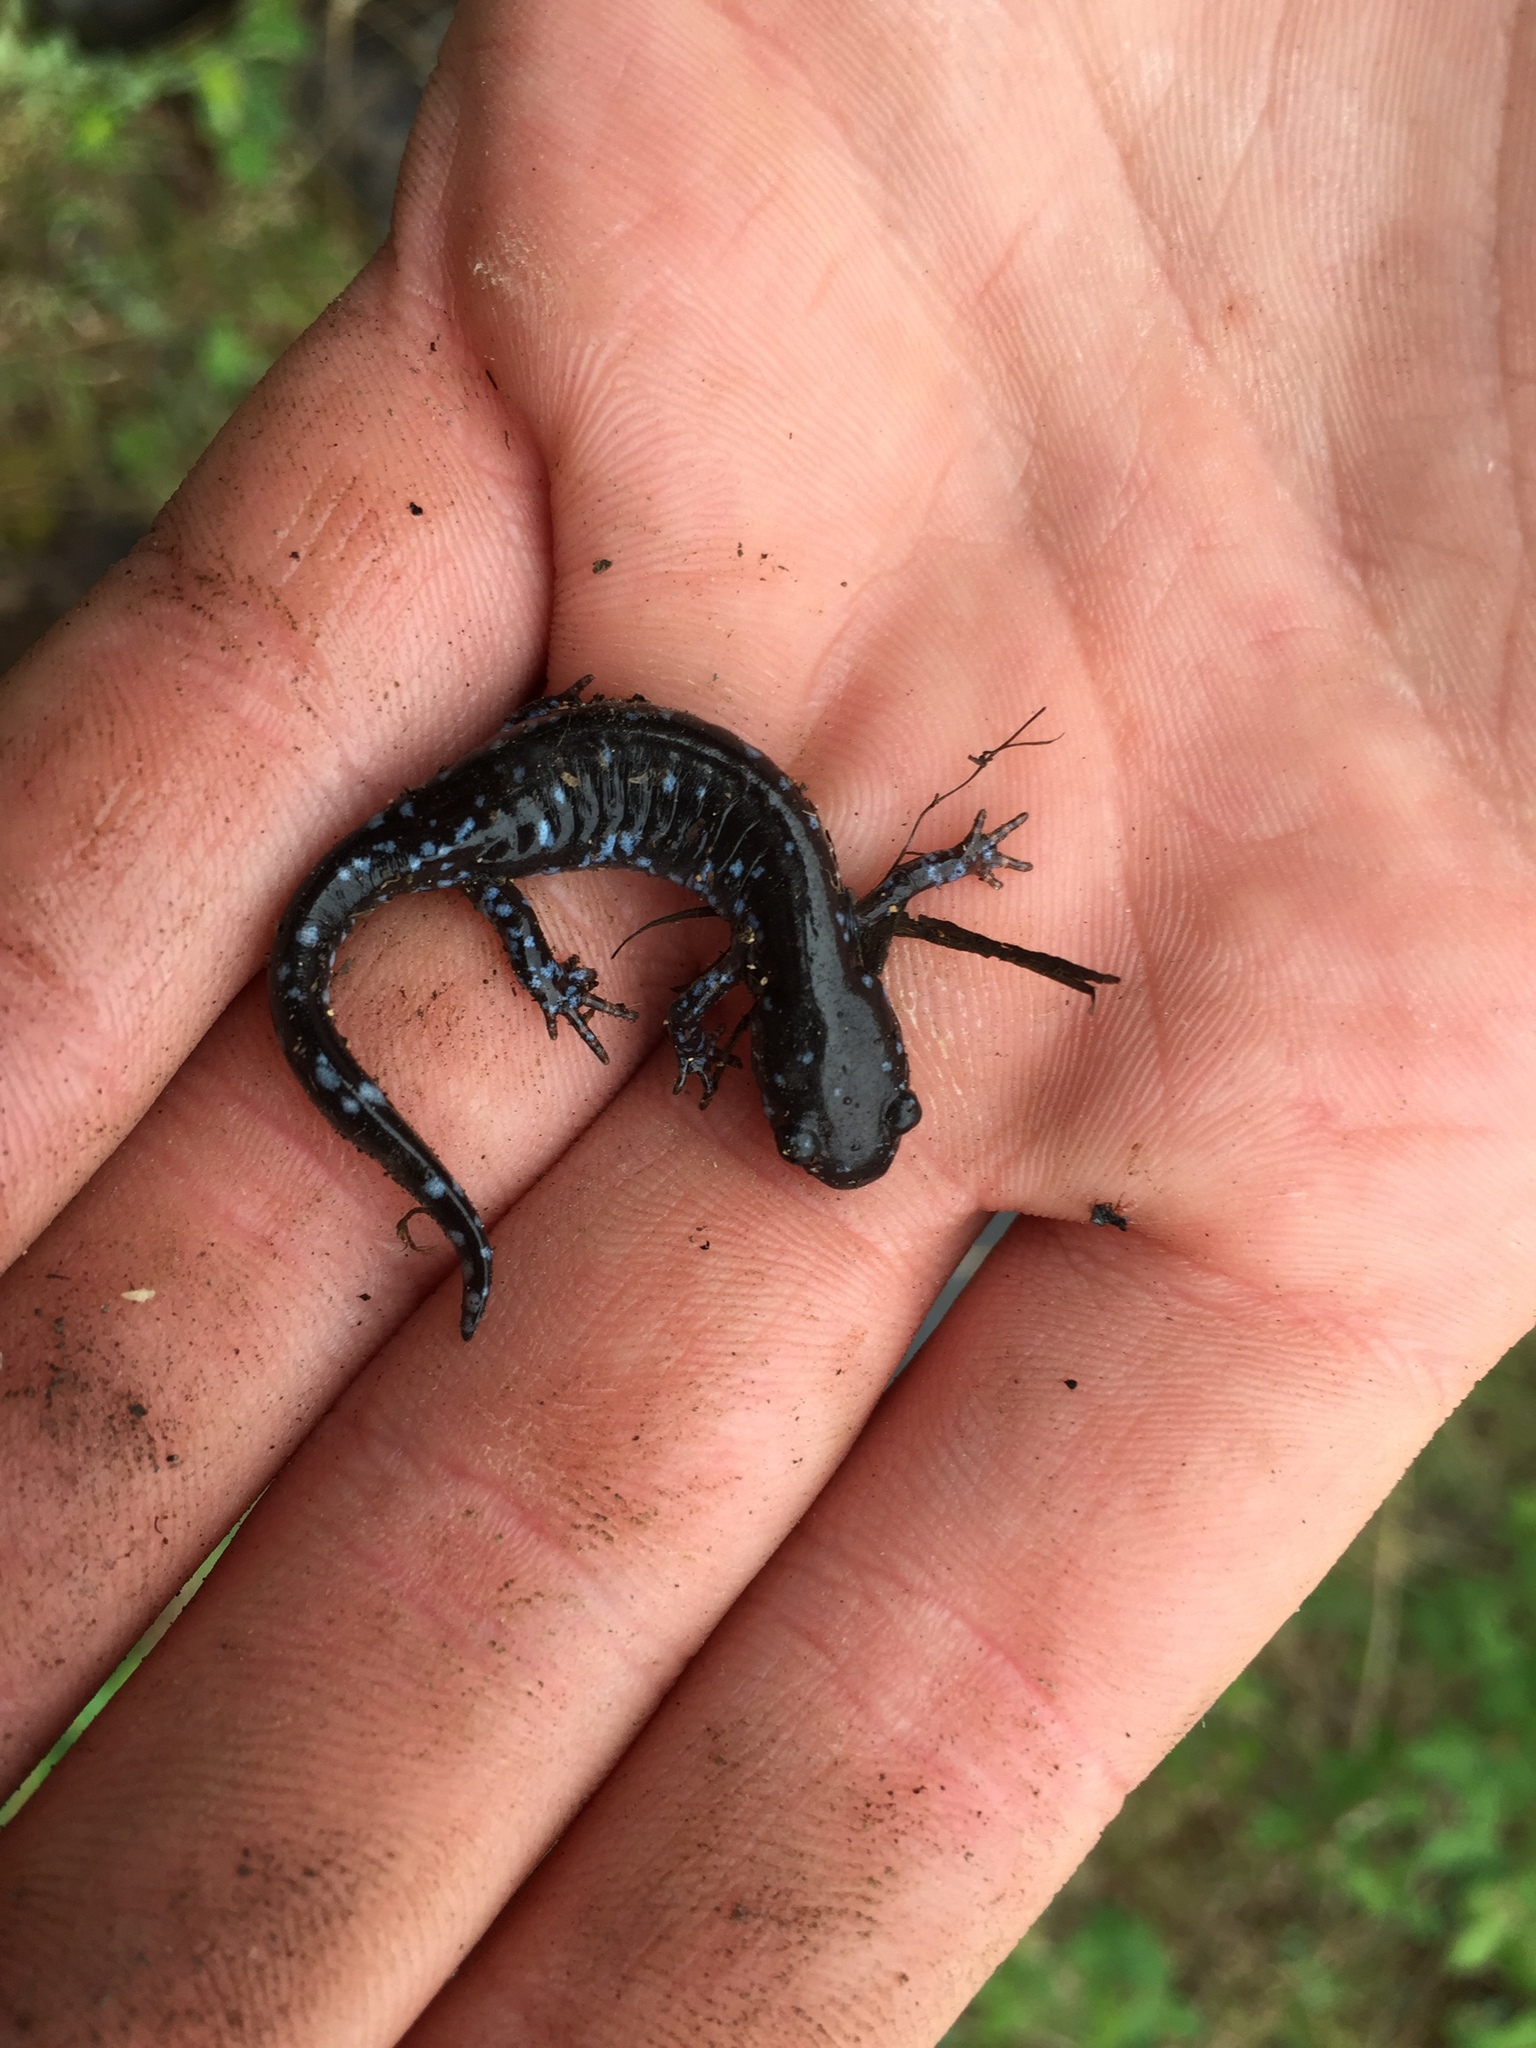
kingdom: Animalia
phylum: Chordata
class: Amphibia
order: Caudata
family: Ambystomatidae
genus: Ambystoma
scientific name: Ambystoma laterale
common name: Blue-spotted salamander
